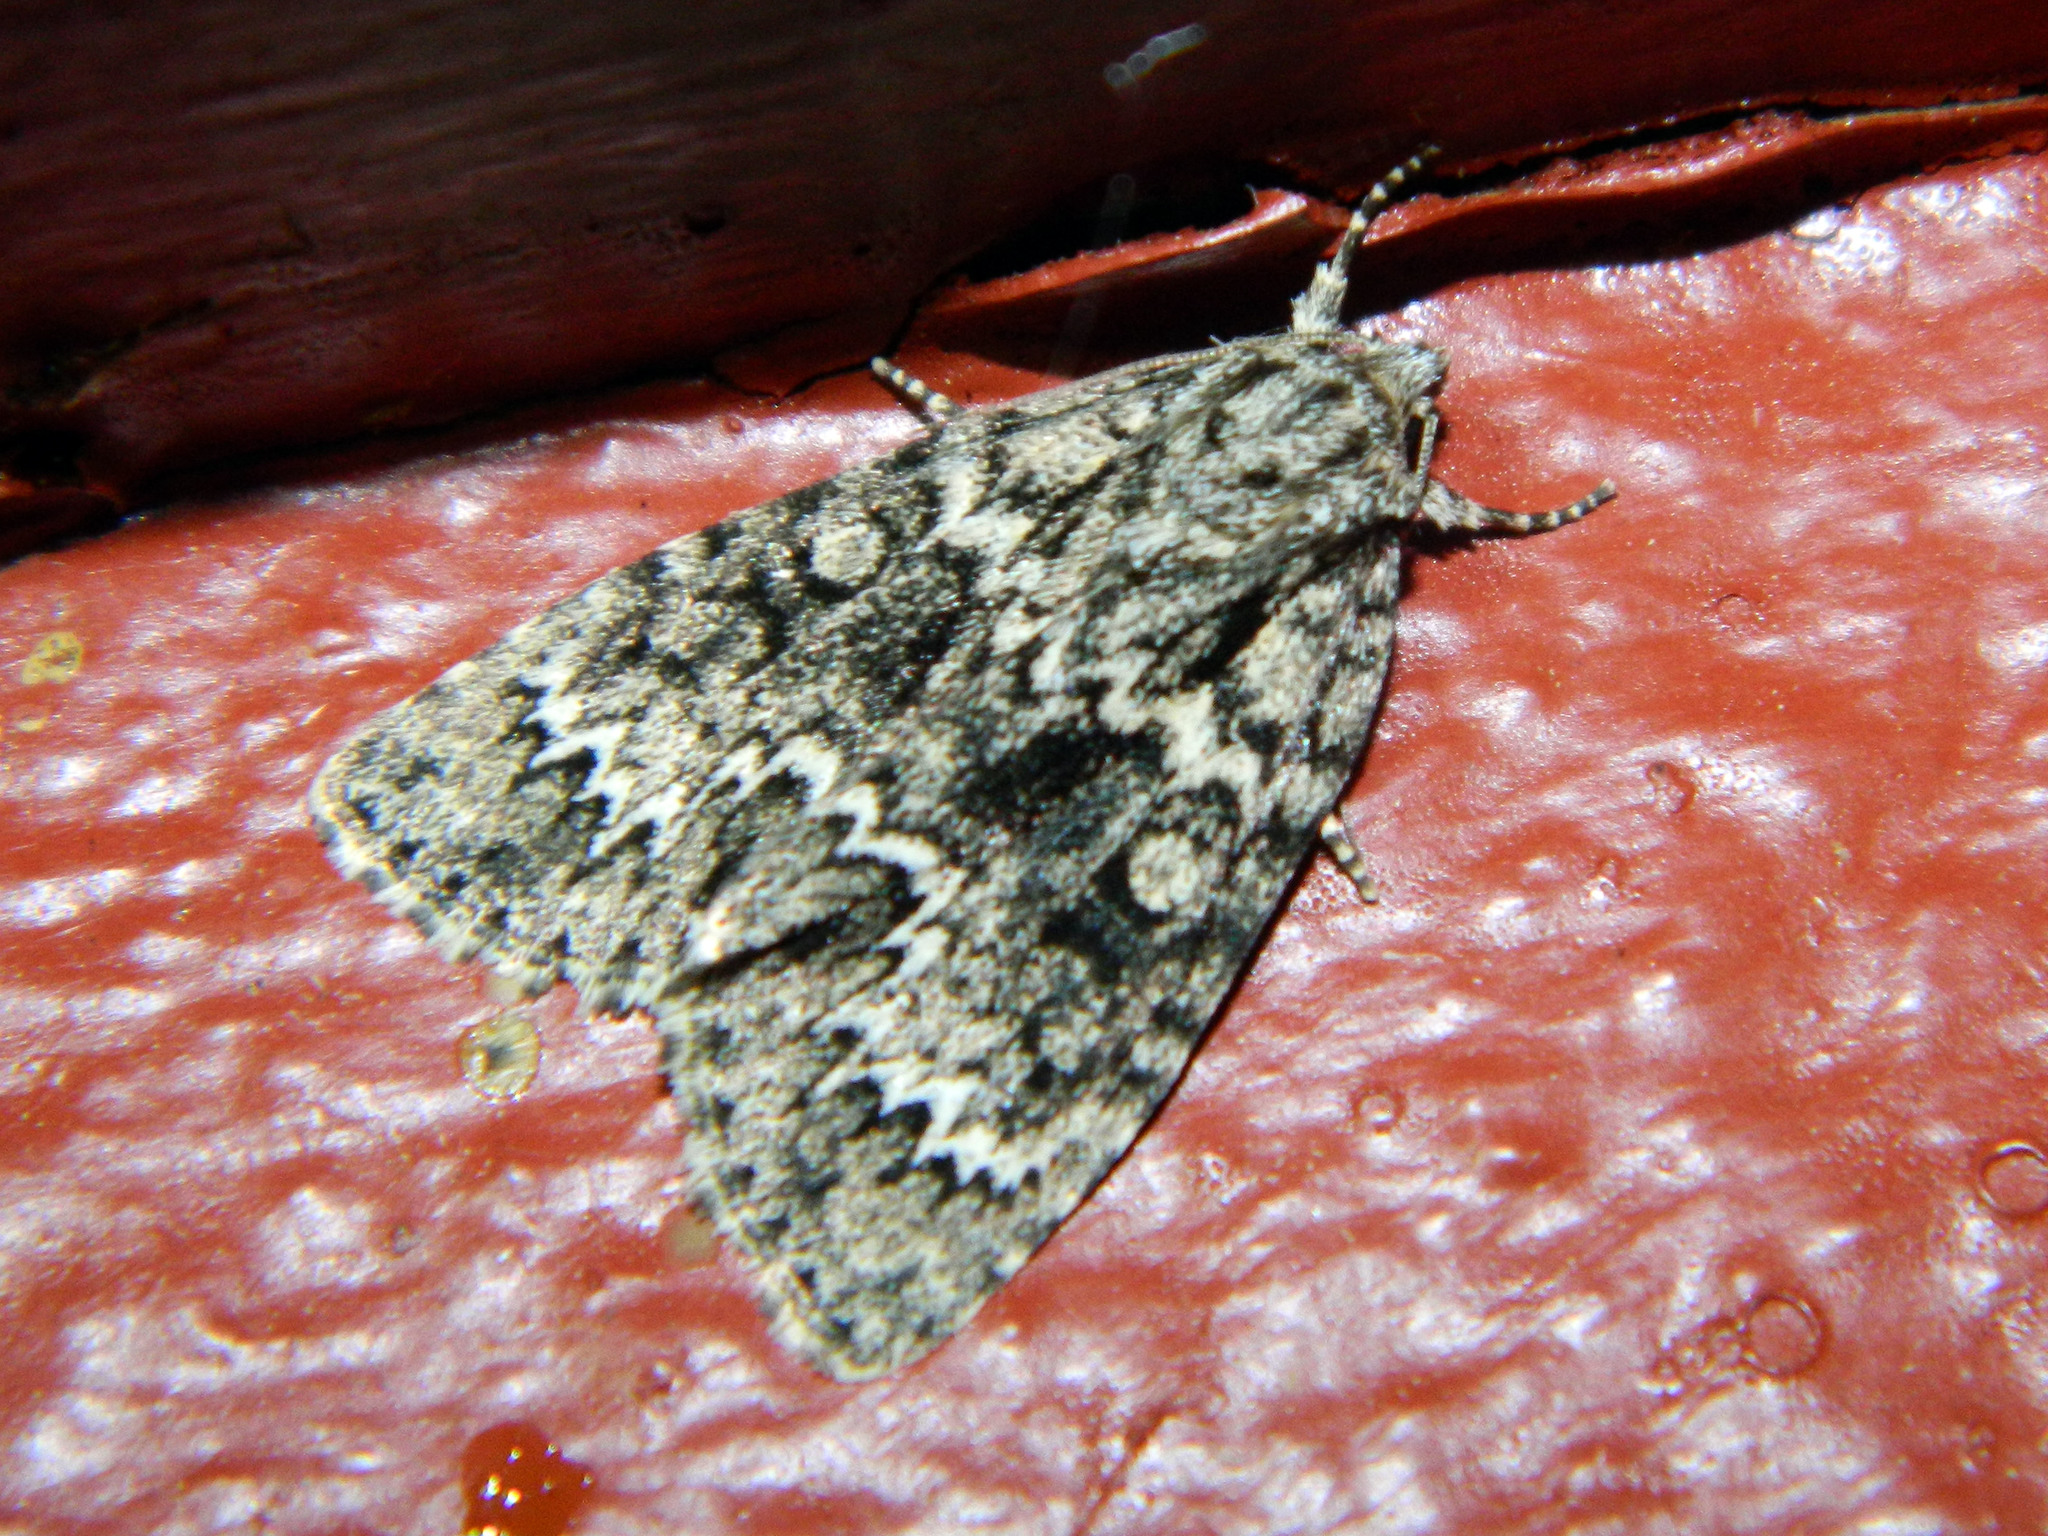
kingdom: Animalia
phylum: Arthropoda
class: Insecta
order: Lepidoptera
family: Noctuidae
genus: Acronicta
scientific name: Acronicta fragilis
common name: Fragile dagger
